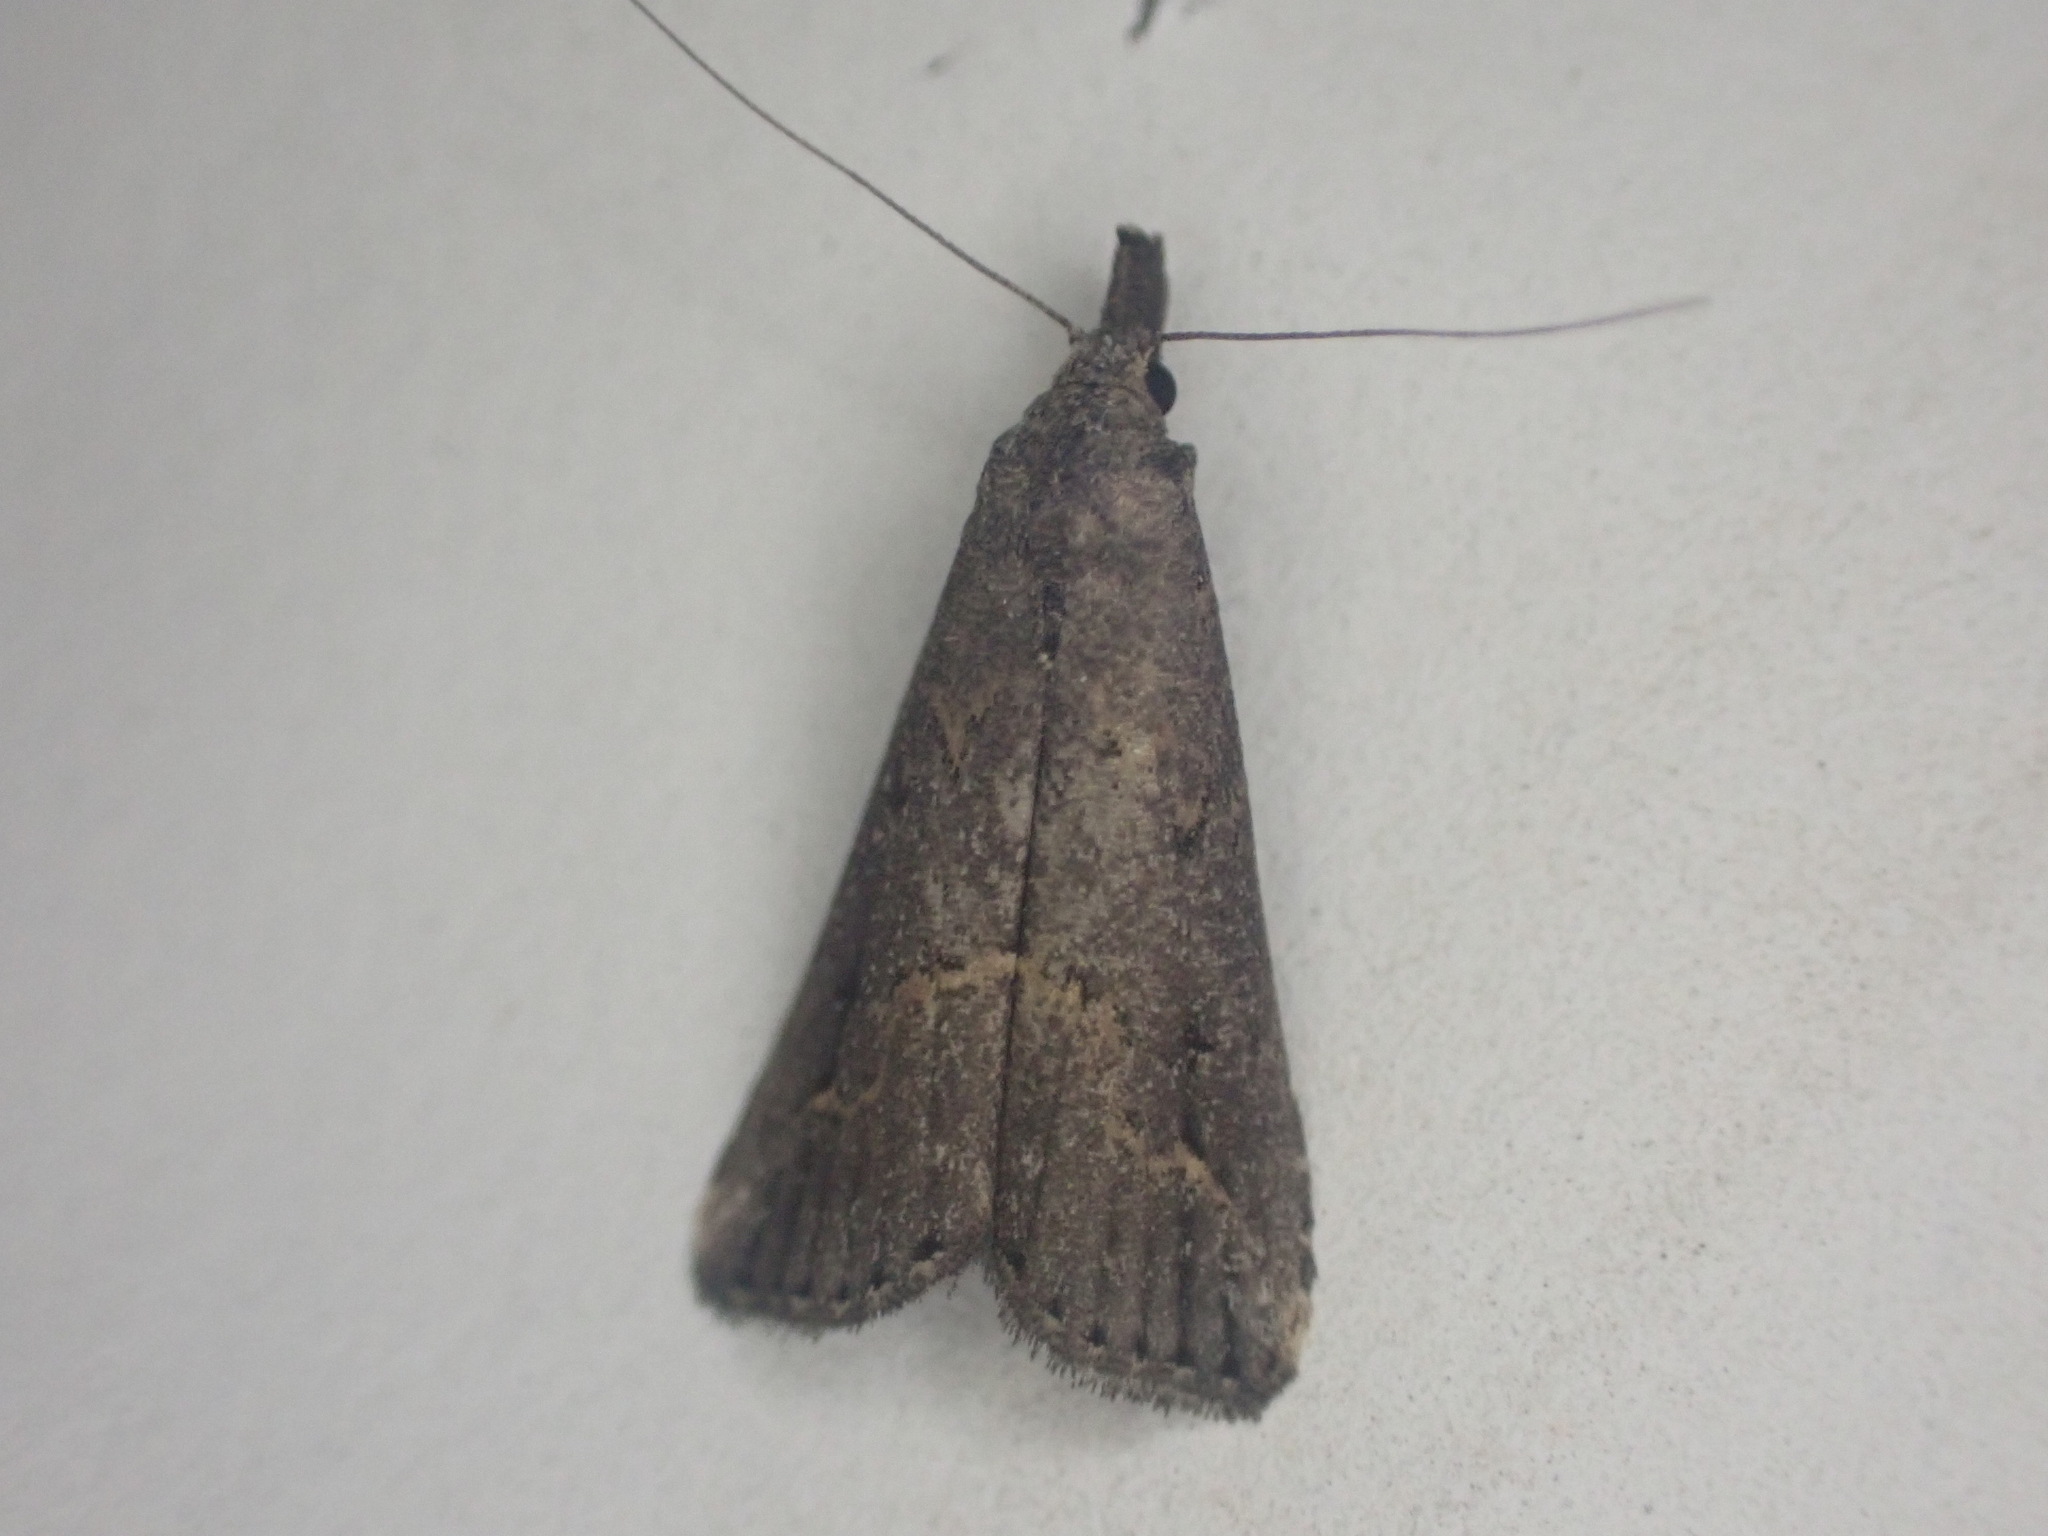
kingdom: Animalia
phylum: Arthropoda
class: Insecta
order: Lepidoptera
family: Erebidae
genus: Schrankia
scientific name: Schrankia costaestrigalis
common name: Pinion-streaked snout
